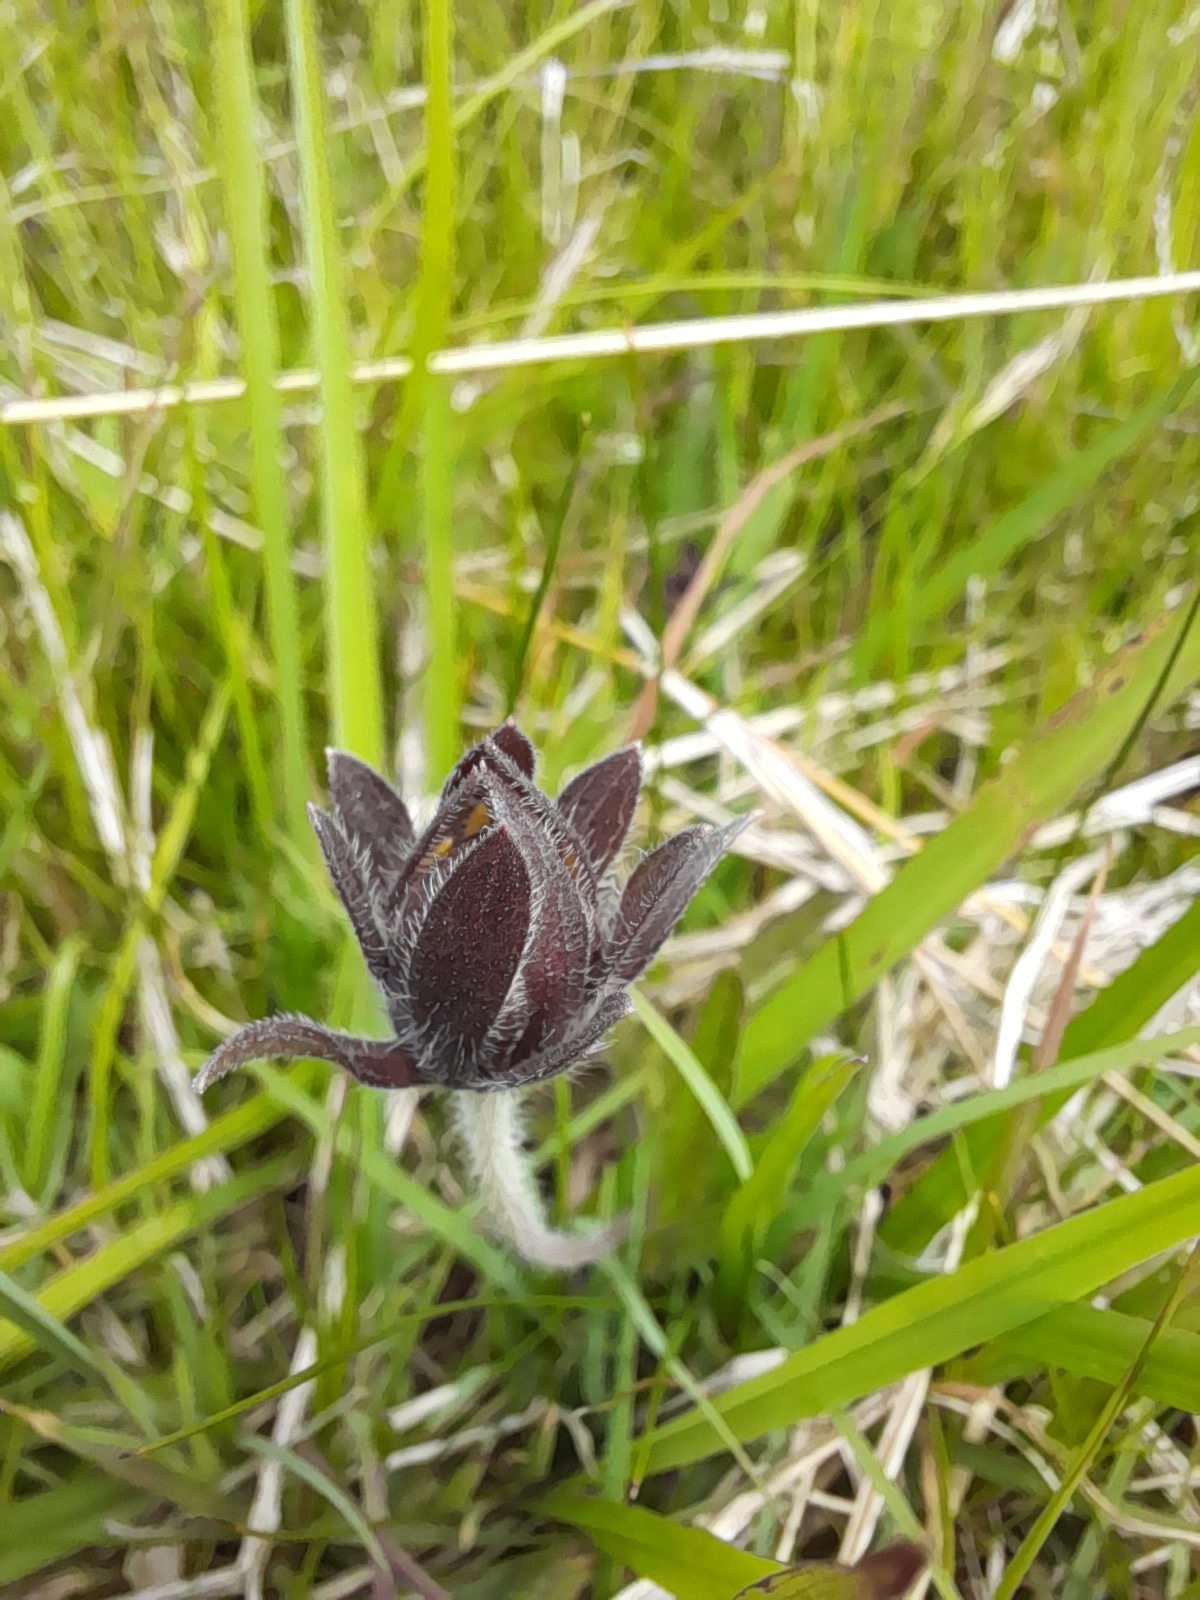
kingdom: Plantae
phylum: Tracheophyta
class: Magnoliopsida
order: Asterales
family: Asteraceae
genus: Wedelia
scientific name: Wedelia montevidensis
